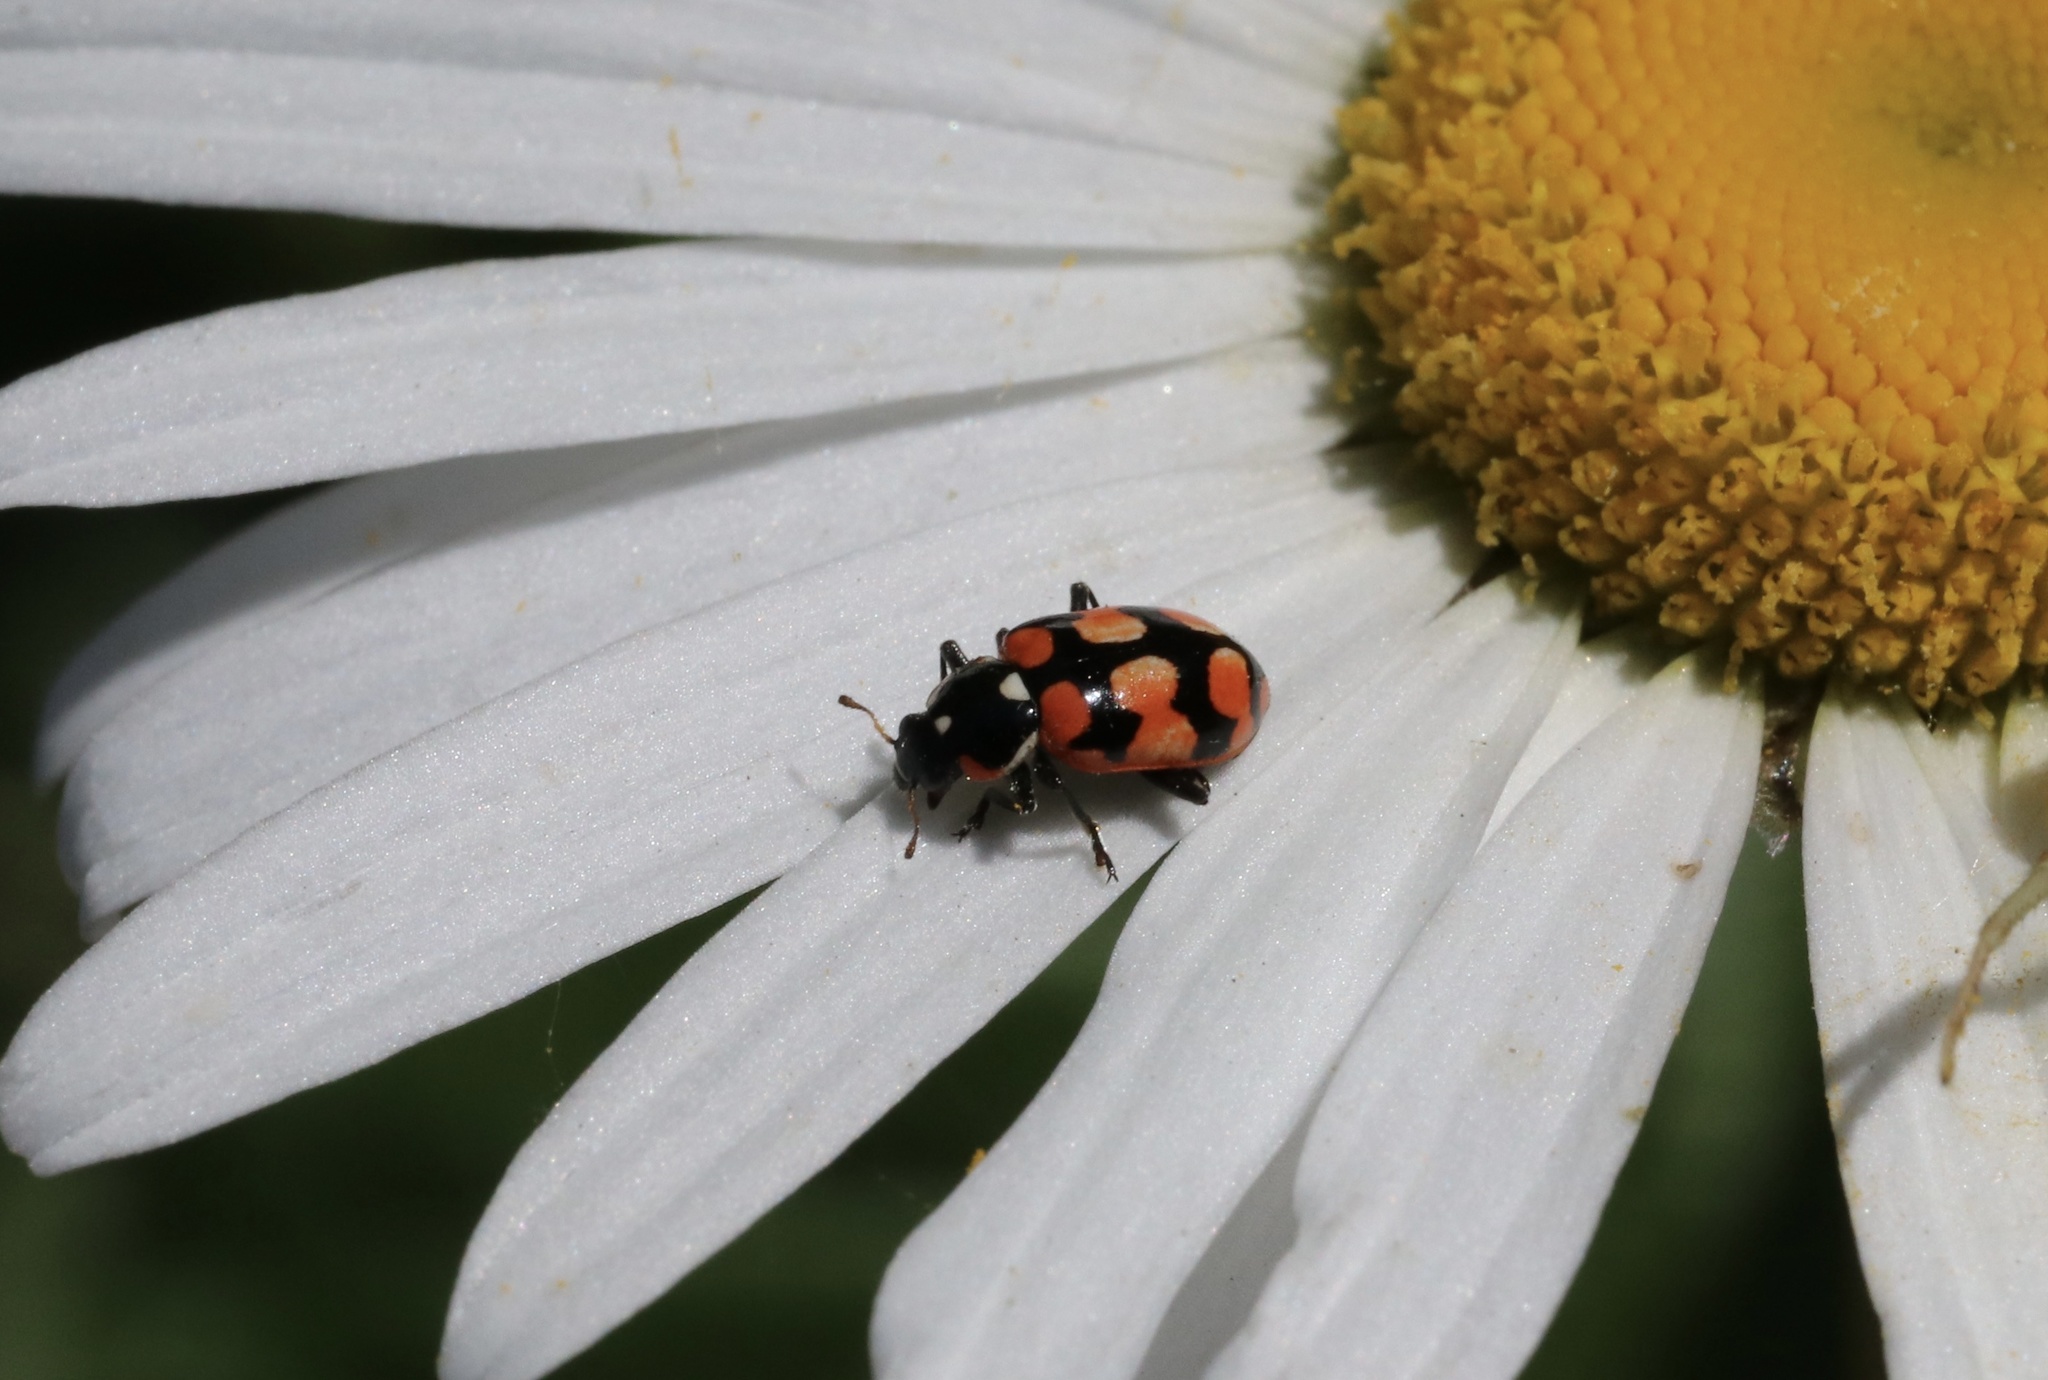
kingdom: Animalia
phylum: Arthropoda
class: Insecta
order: Coleoptera
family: Coccinellidae
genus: Eriopis
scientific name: Eriopis chilensis
